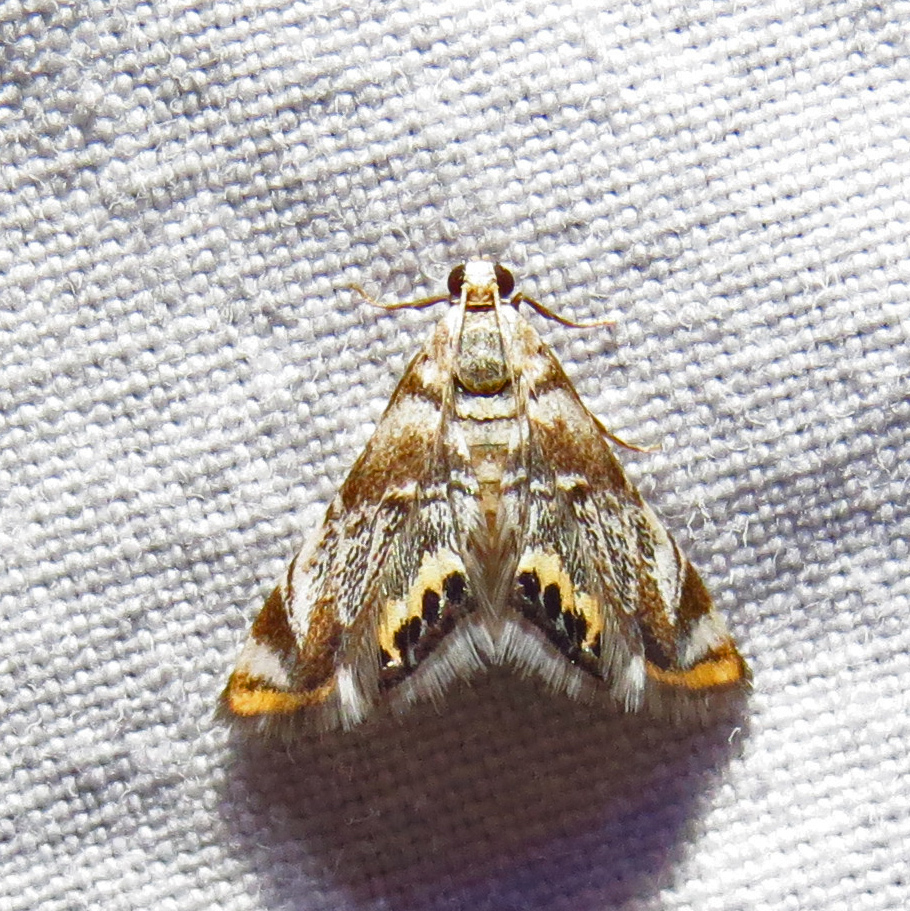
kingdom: Animalia
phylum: Arthropoda
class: Insecta
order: Lepidoptera
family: Crambidae
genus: Eoparargyractis
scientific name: Eoparargyractis irroratalis
